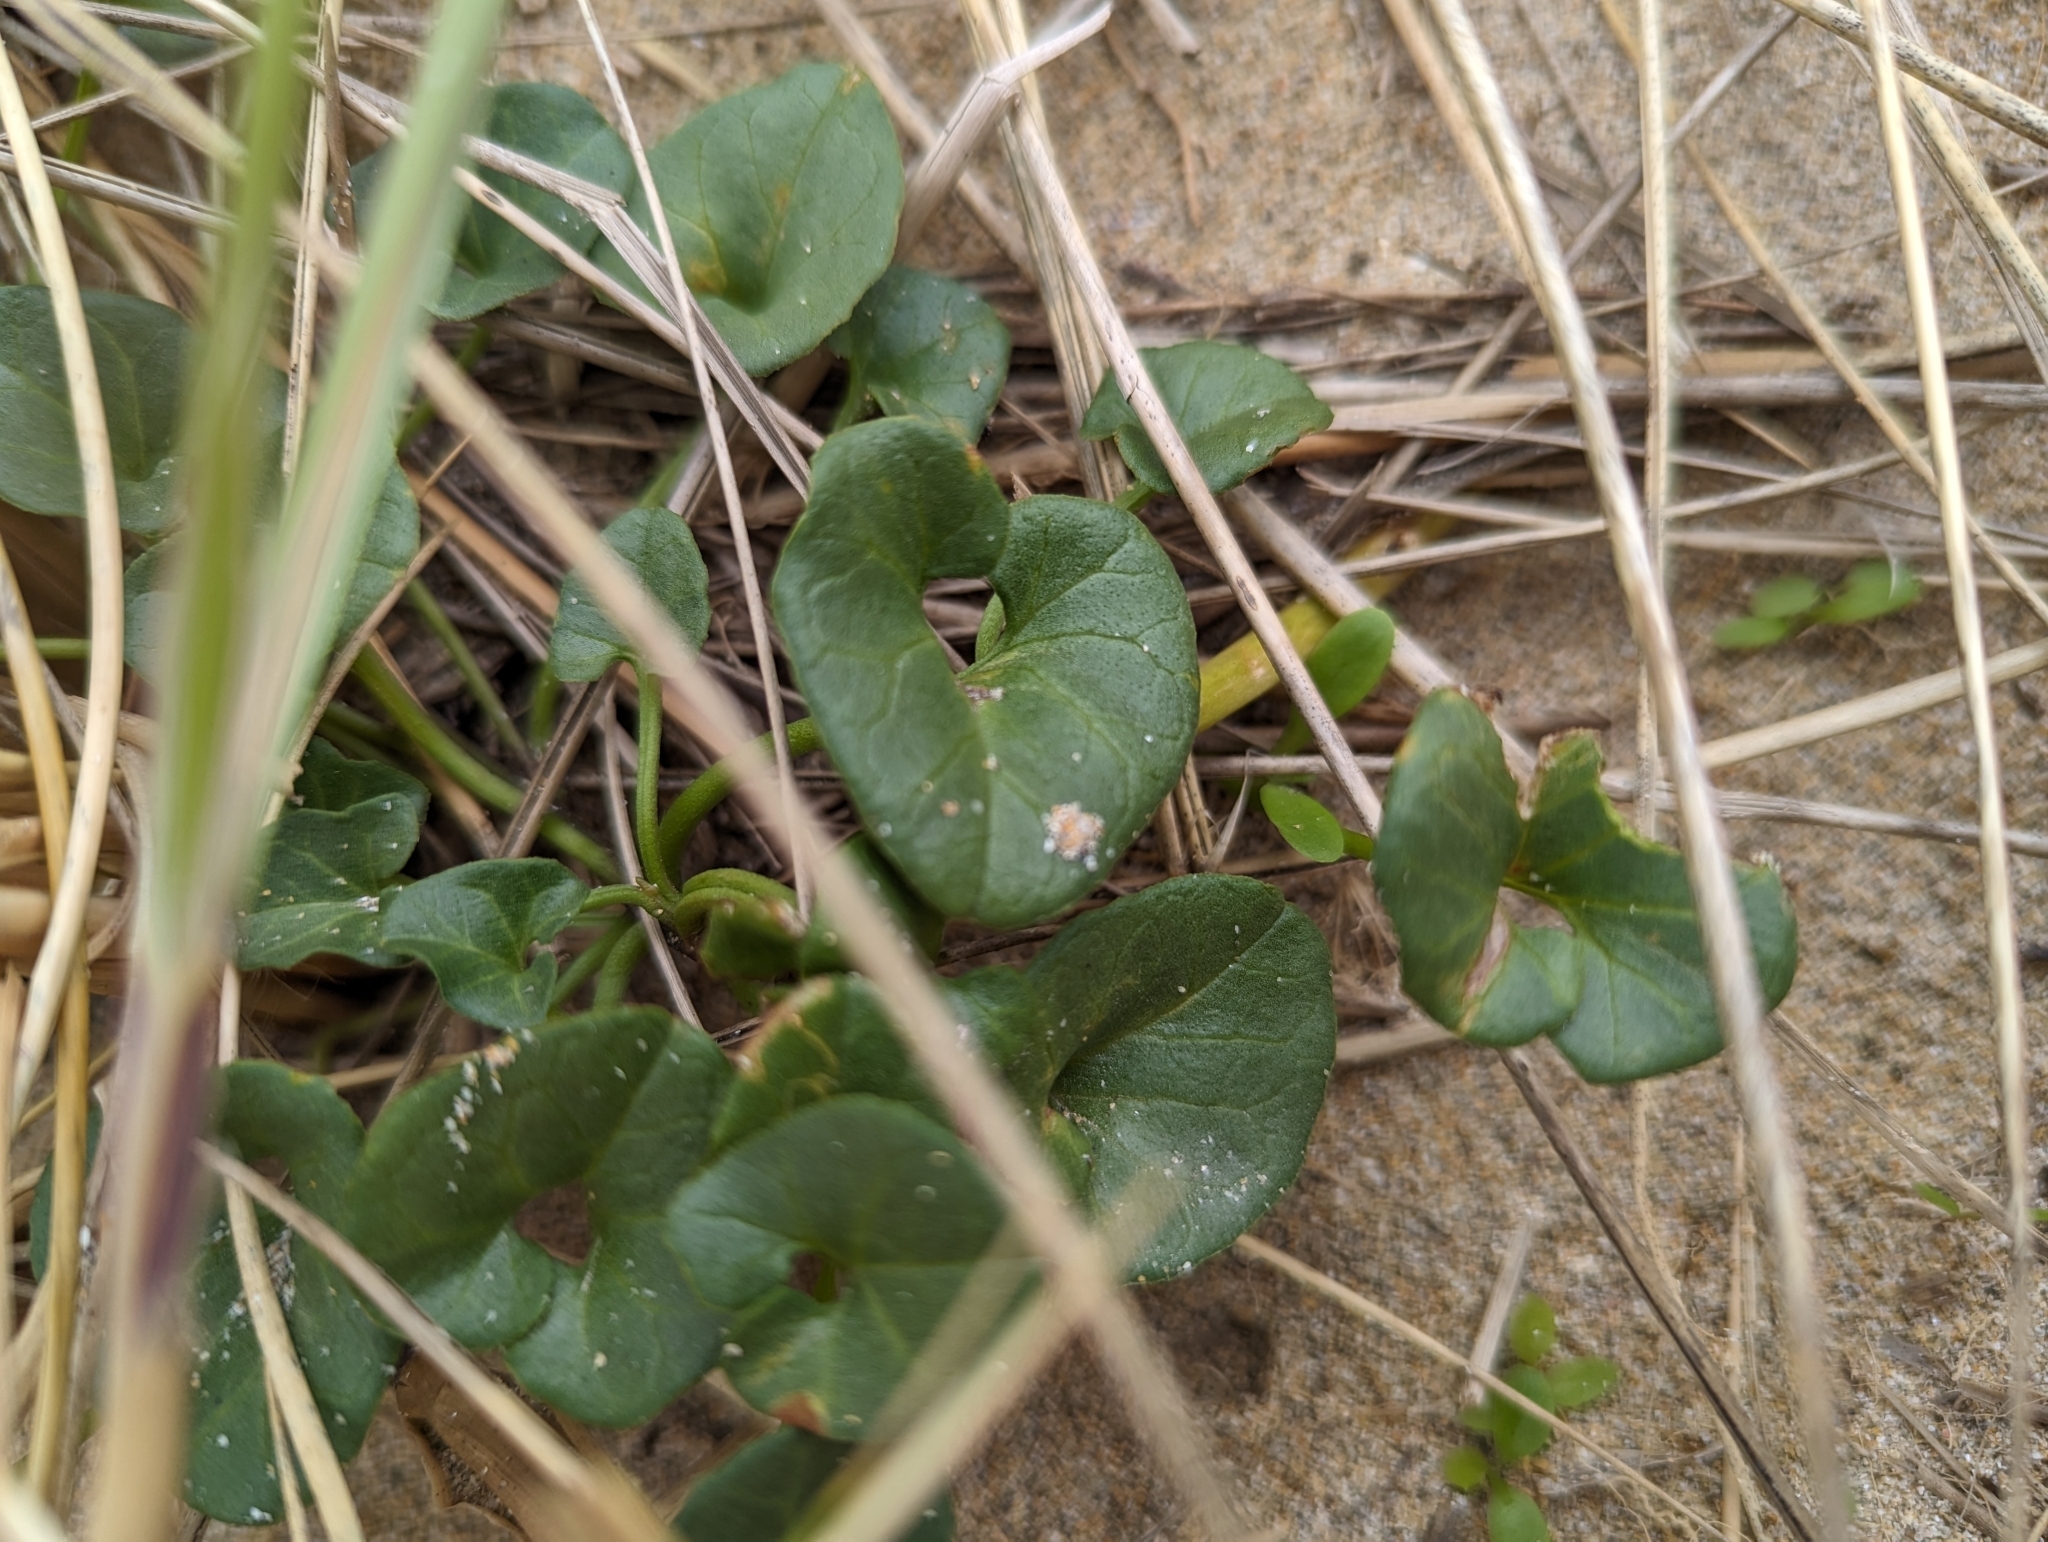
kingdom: Plantae
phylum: Tracheophyta
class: Magnoliopsida
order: Solanales
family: Convolvulaceae
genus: Calystegia
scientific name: Calystegia soldanella
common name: Sea bindweed
